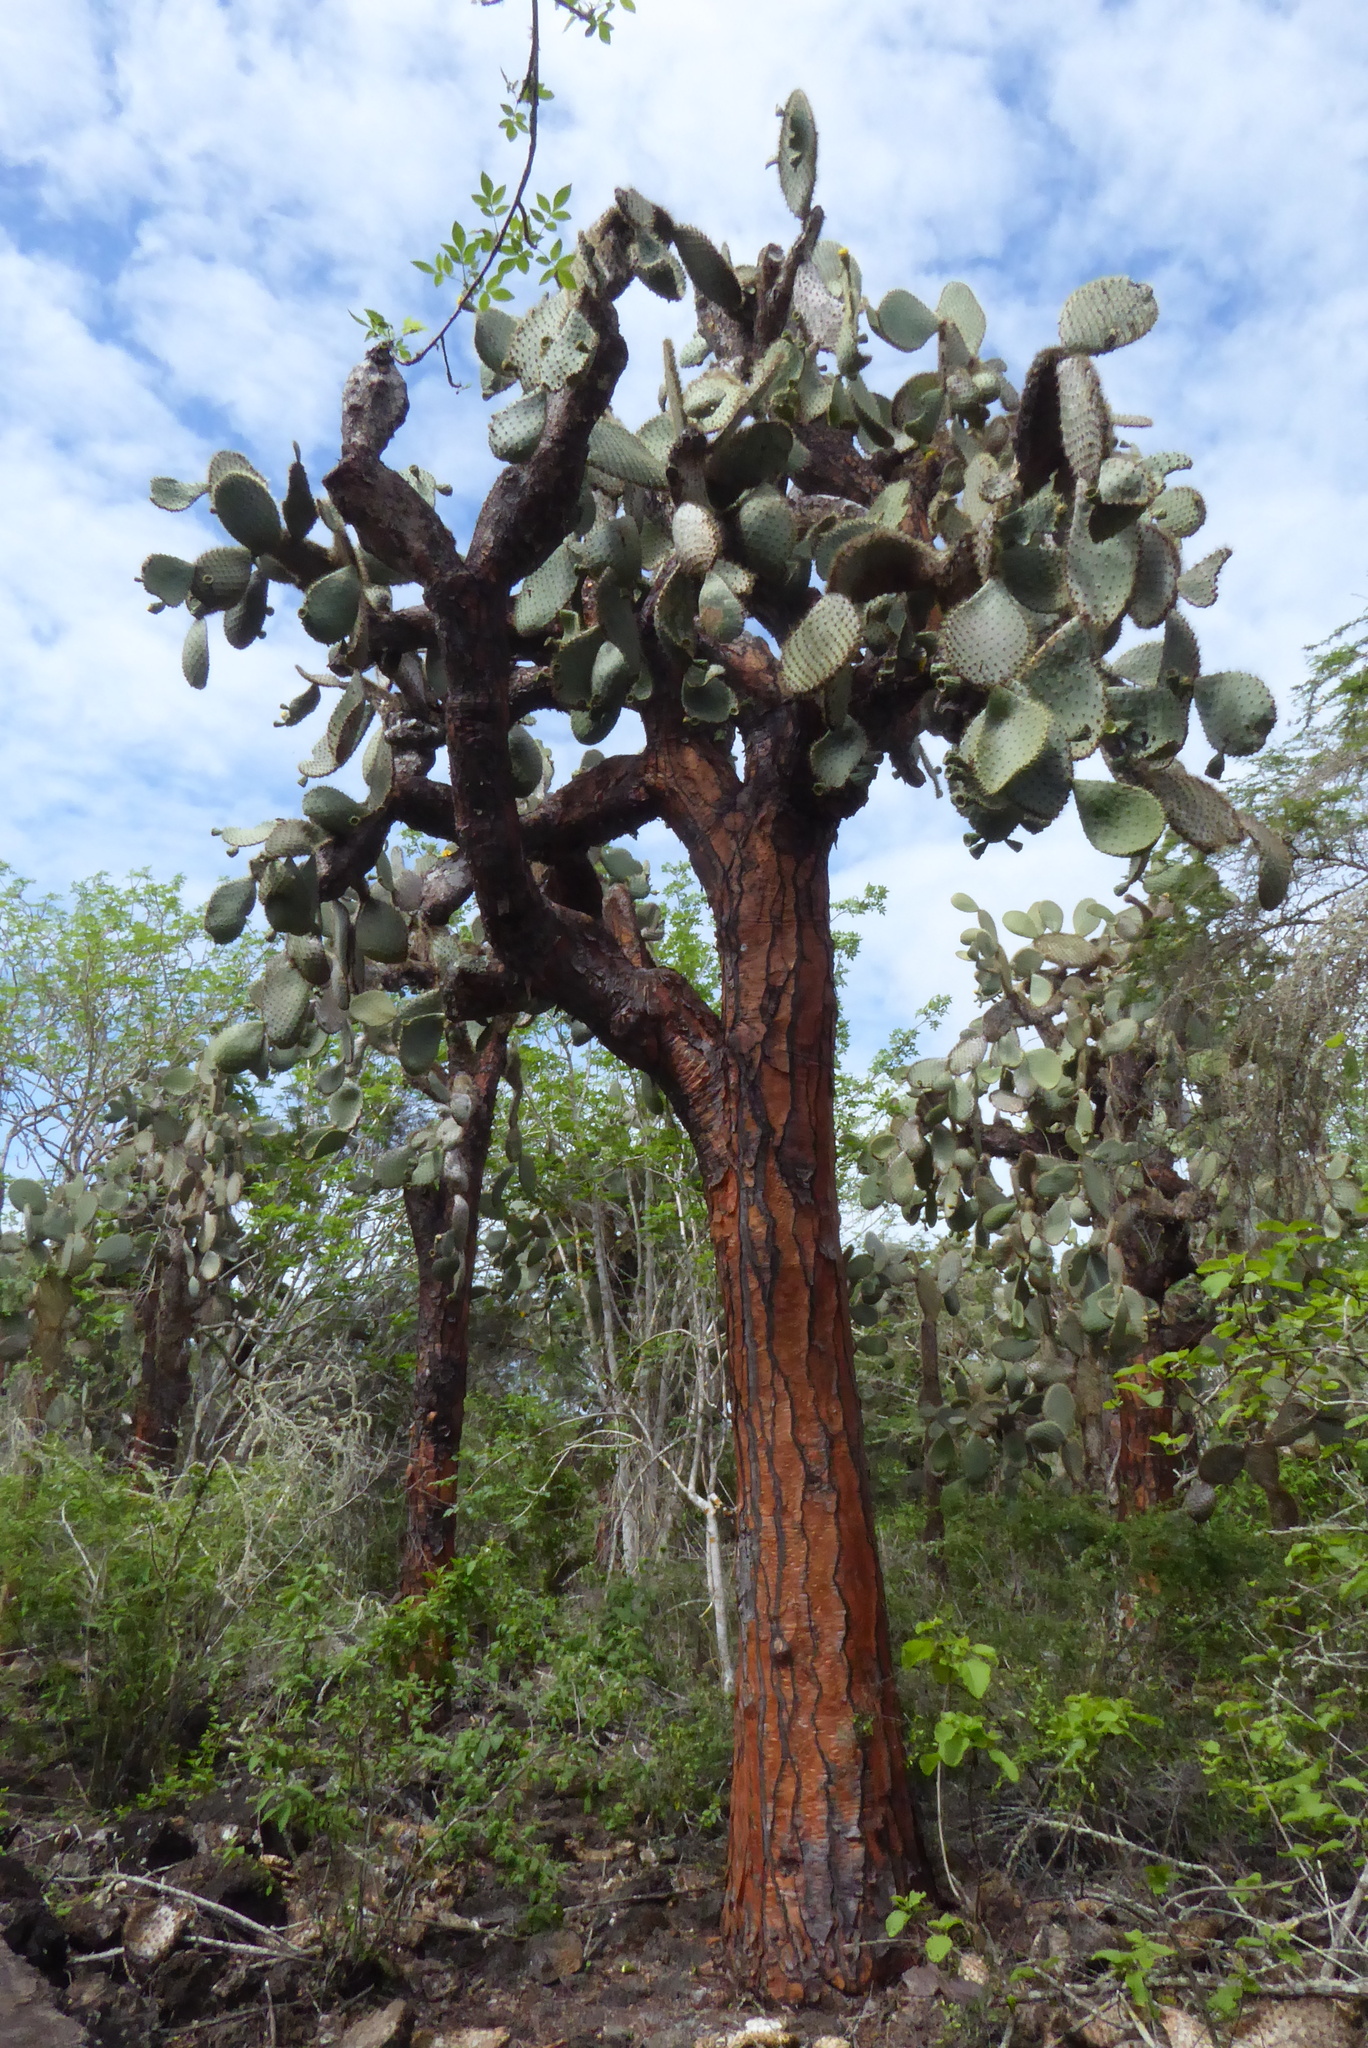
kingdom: Plantae
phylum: Tracheophyta
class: Magnoliopsida
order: Caryophyllales
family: Cactaceae
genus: Opuntia
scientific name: Opuntia galapageia
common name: Galápagos prickly pear
